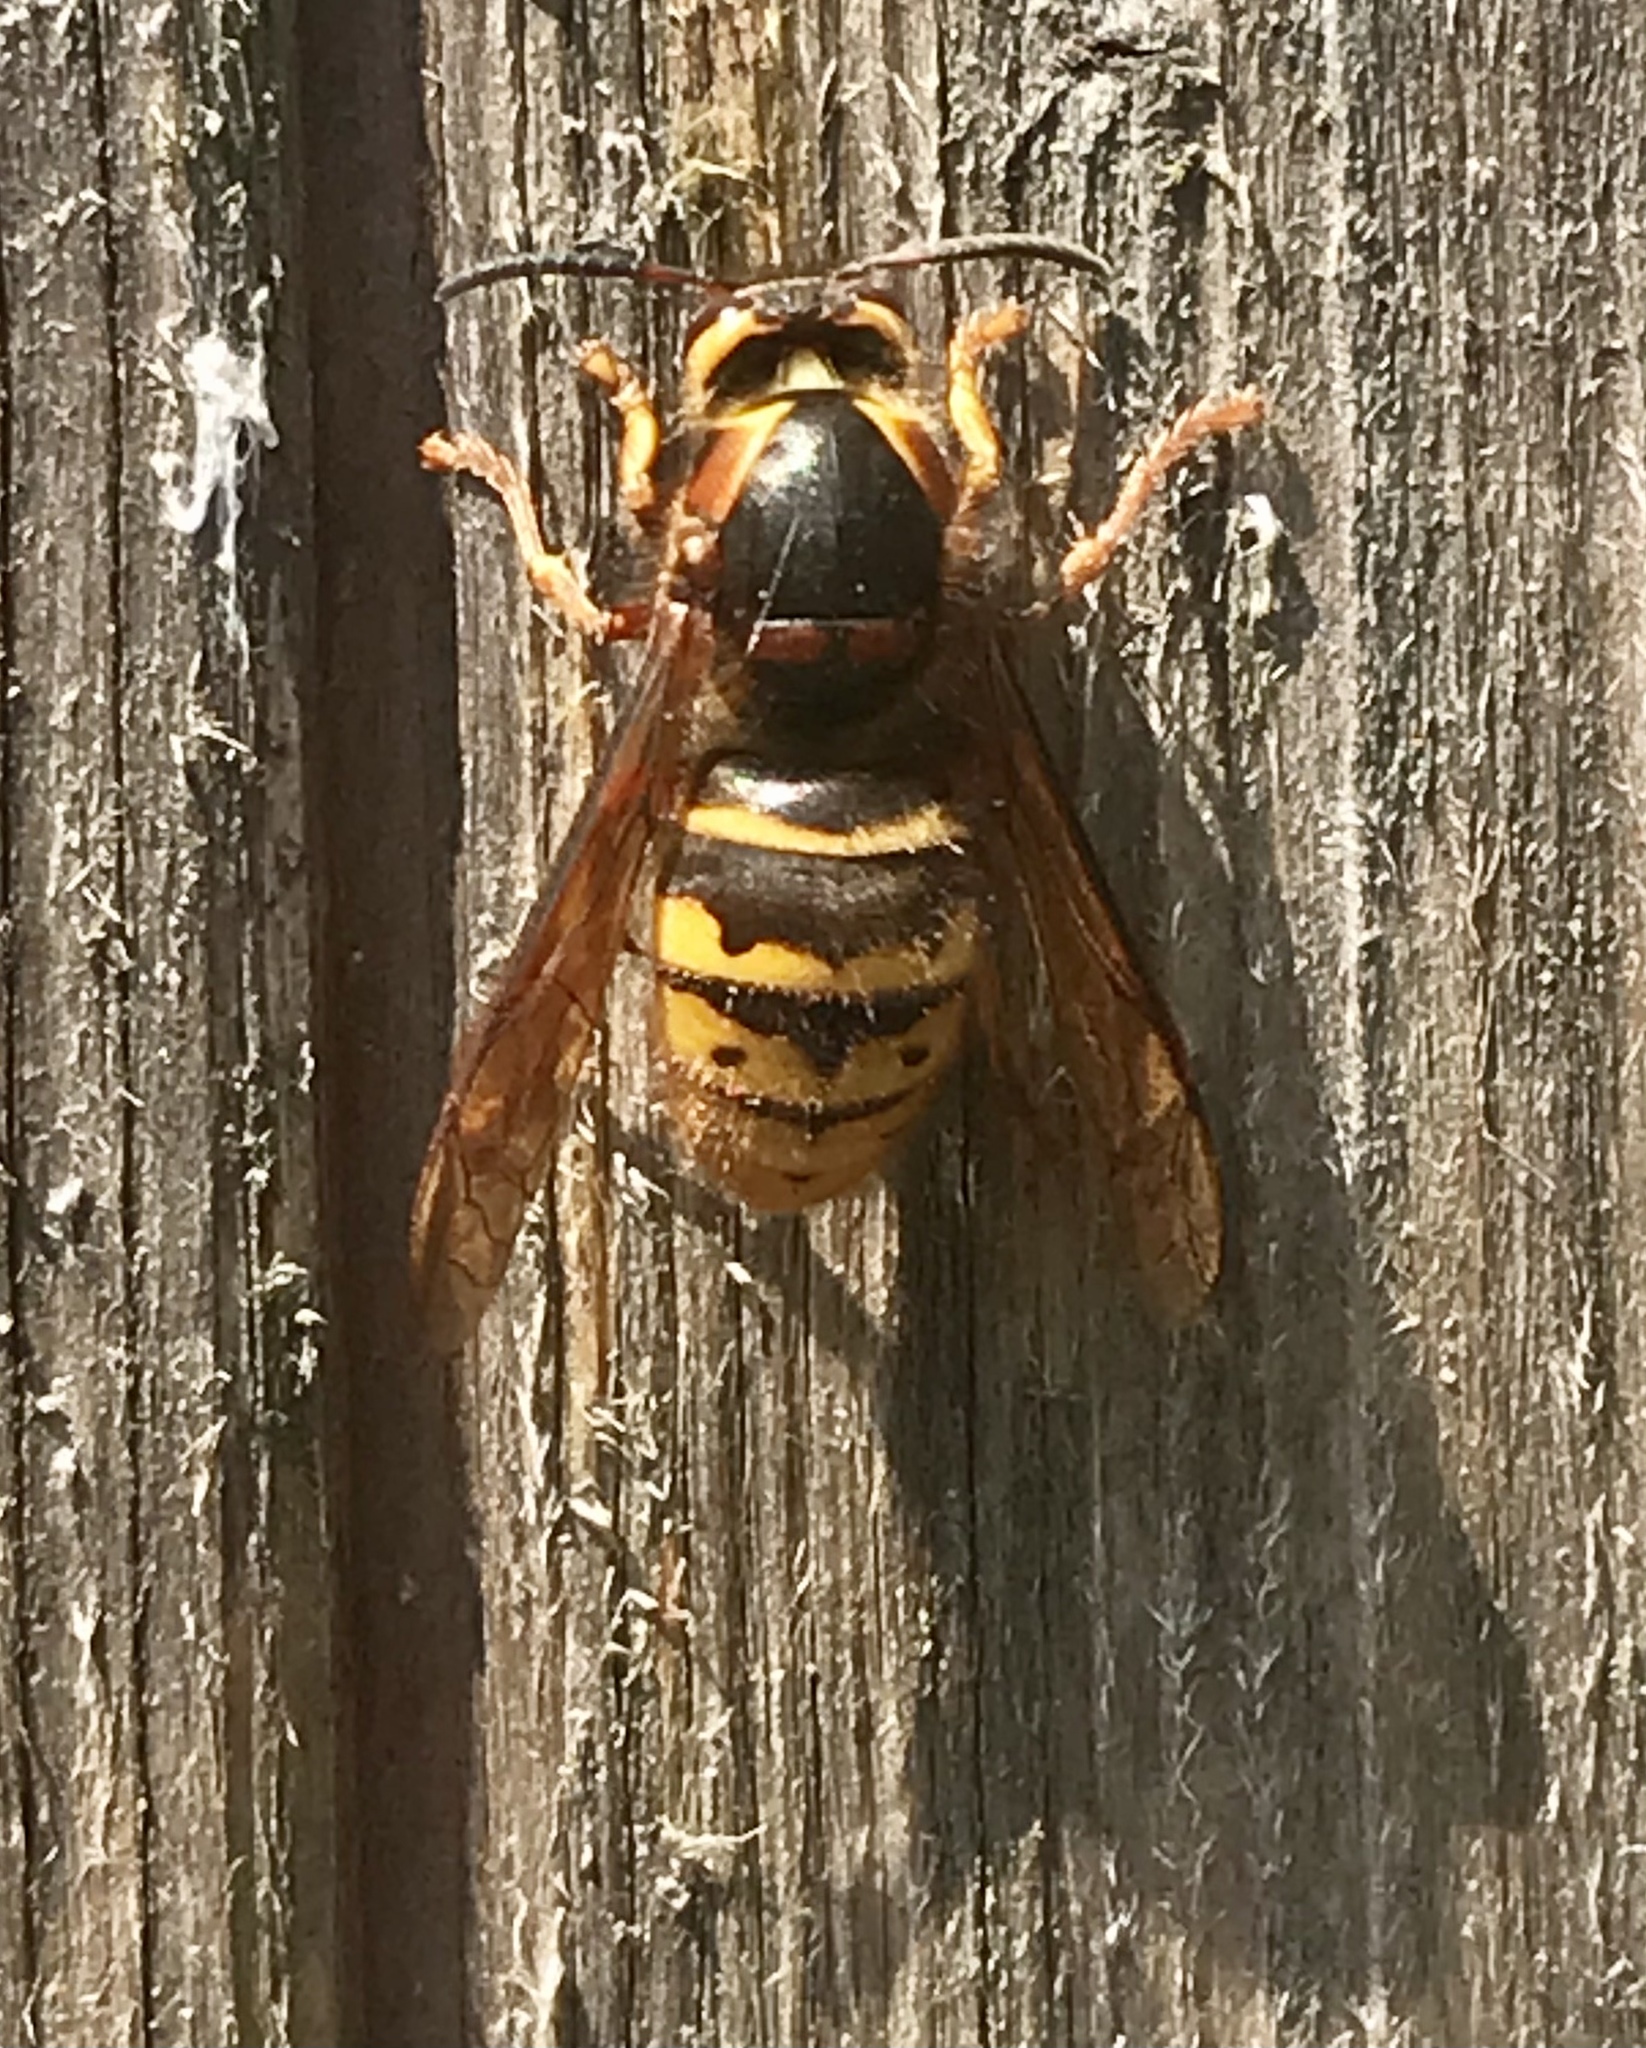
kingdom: Animalia
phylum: Arthropoda
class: Insecta
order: Hymenoptera
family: Vespidae
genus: Dolichovespula
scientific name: Dolichovespula media
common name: Median wasp
